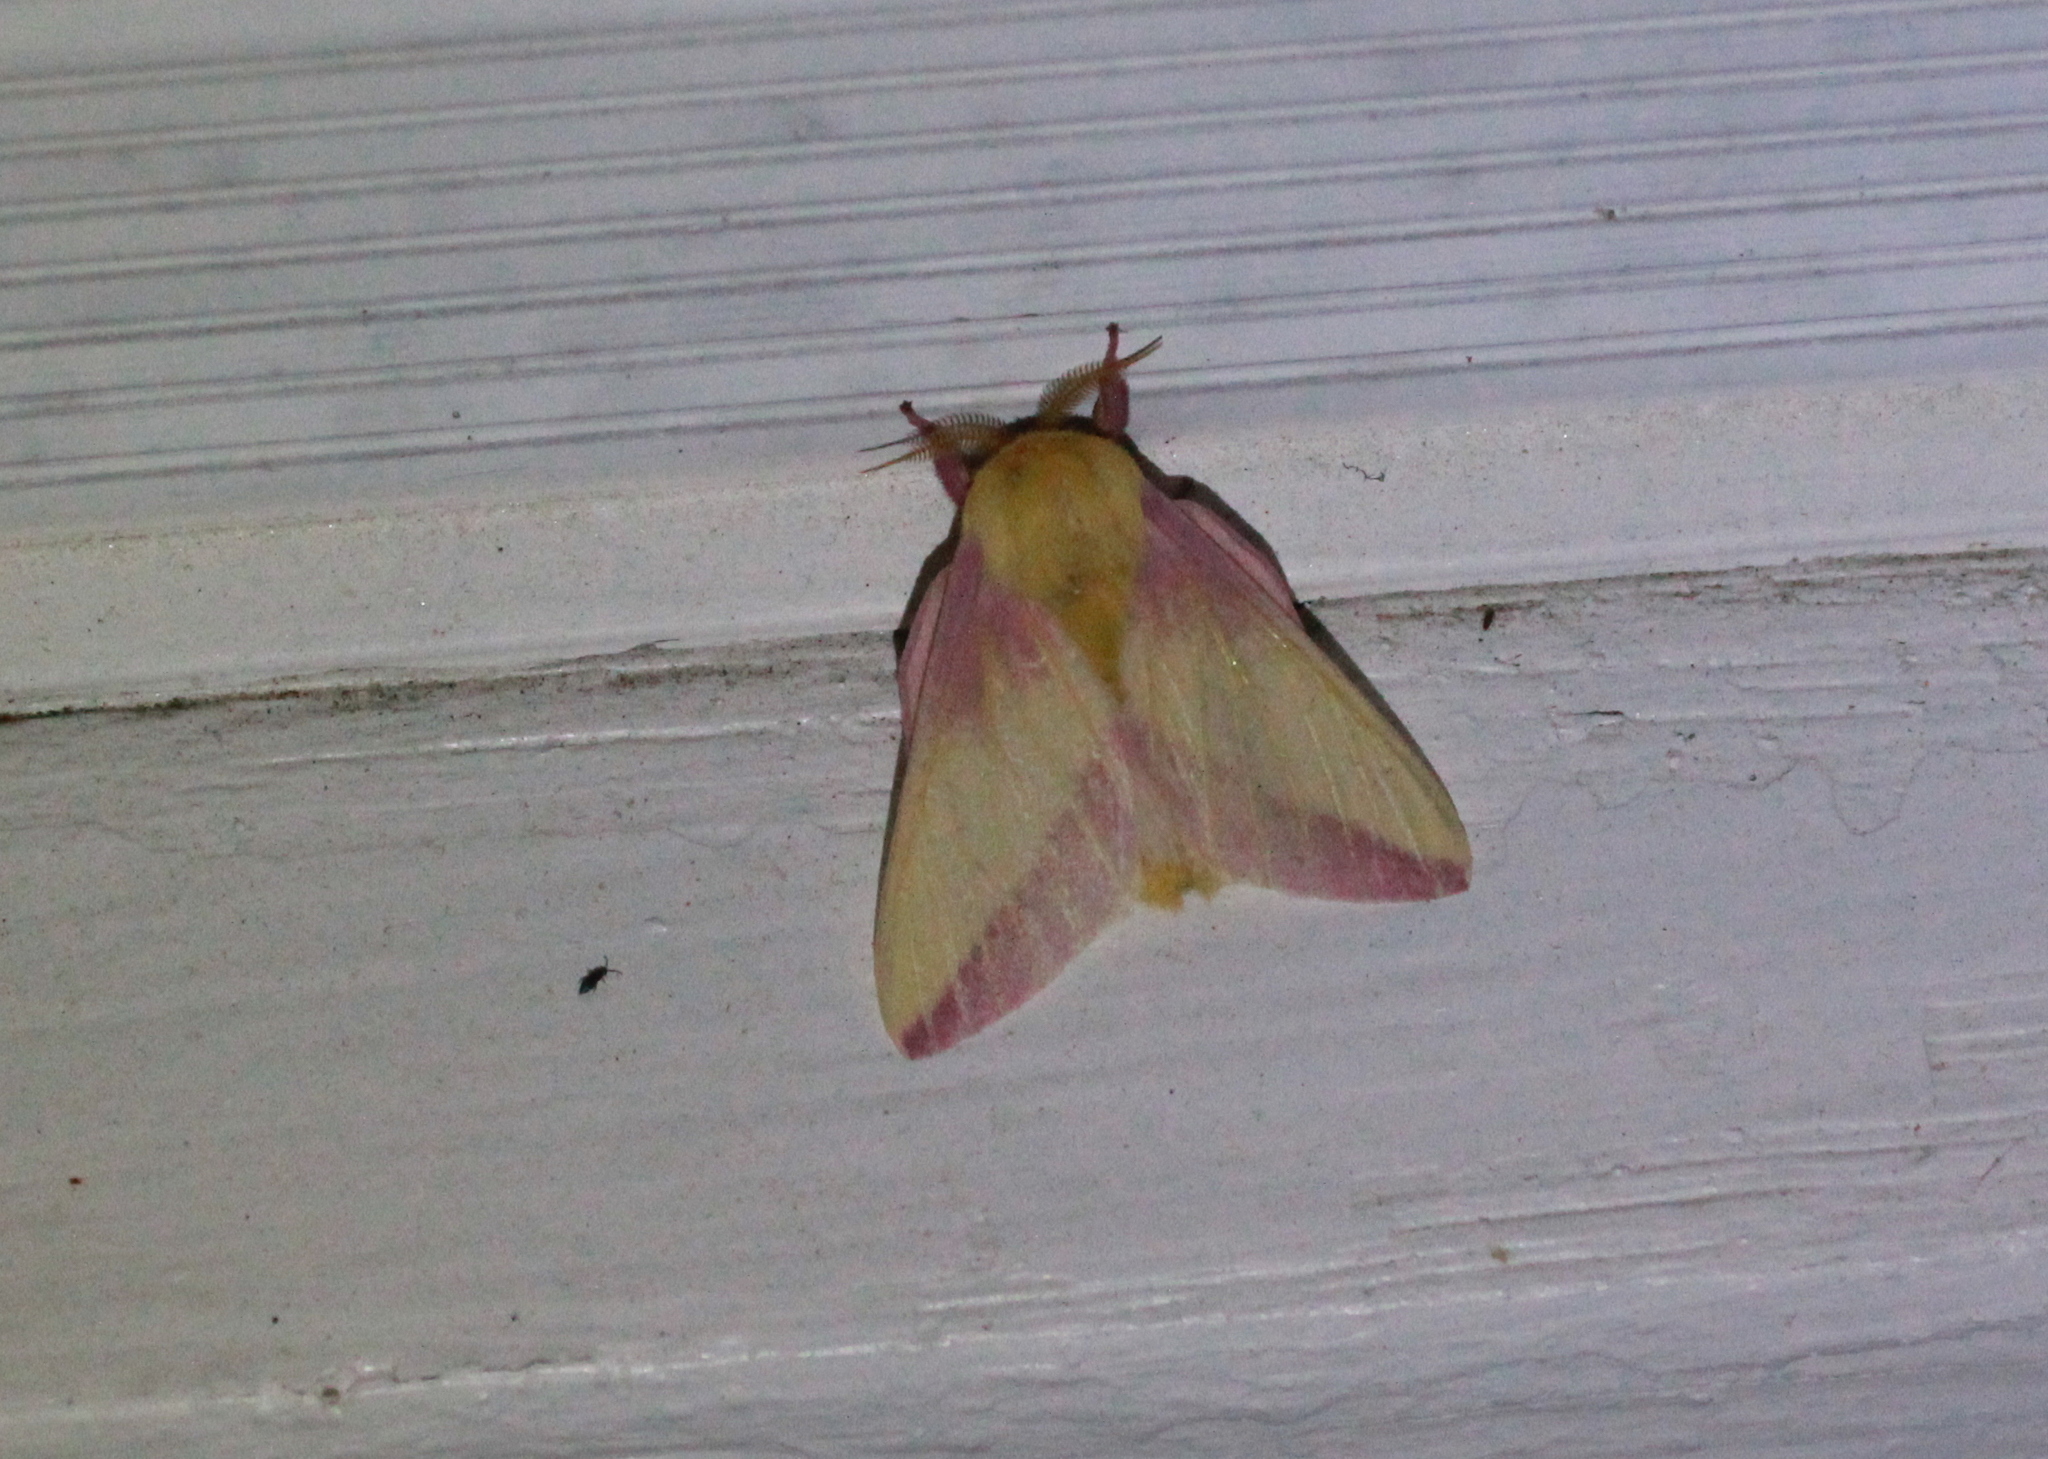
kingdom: Animalia
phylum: Arthropoda
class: Insecta
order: Lepidoptera
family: Saturniidae
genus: Dryocampa
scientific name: Dryocampa rubicunda
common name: Rosy maple moth
